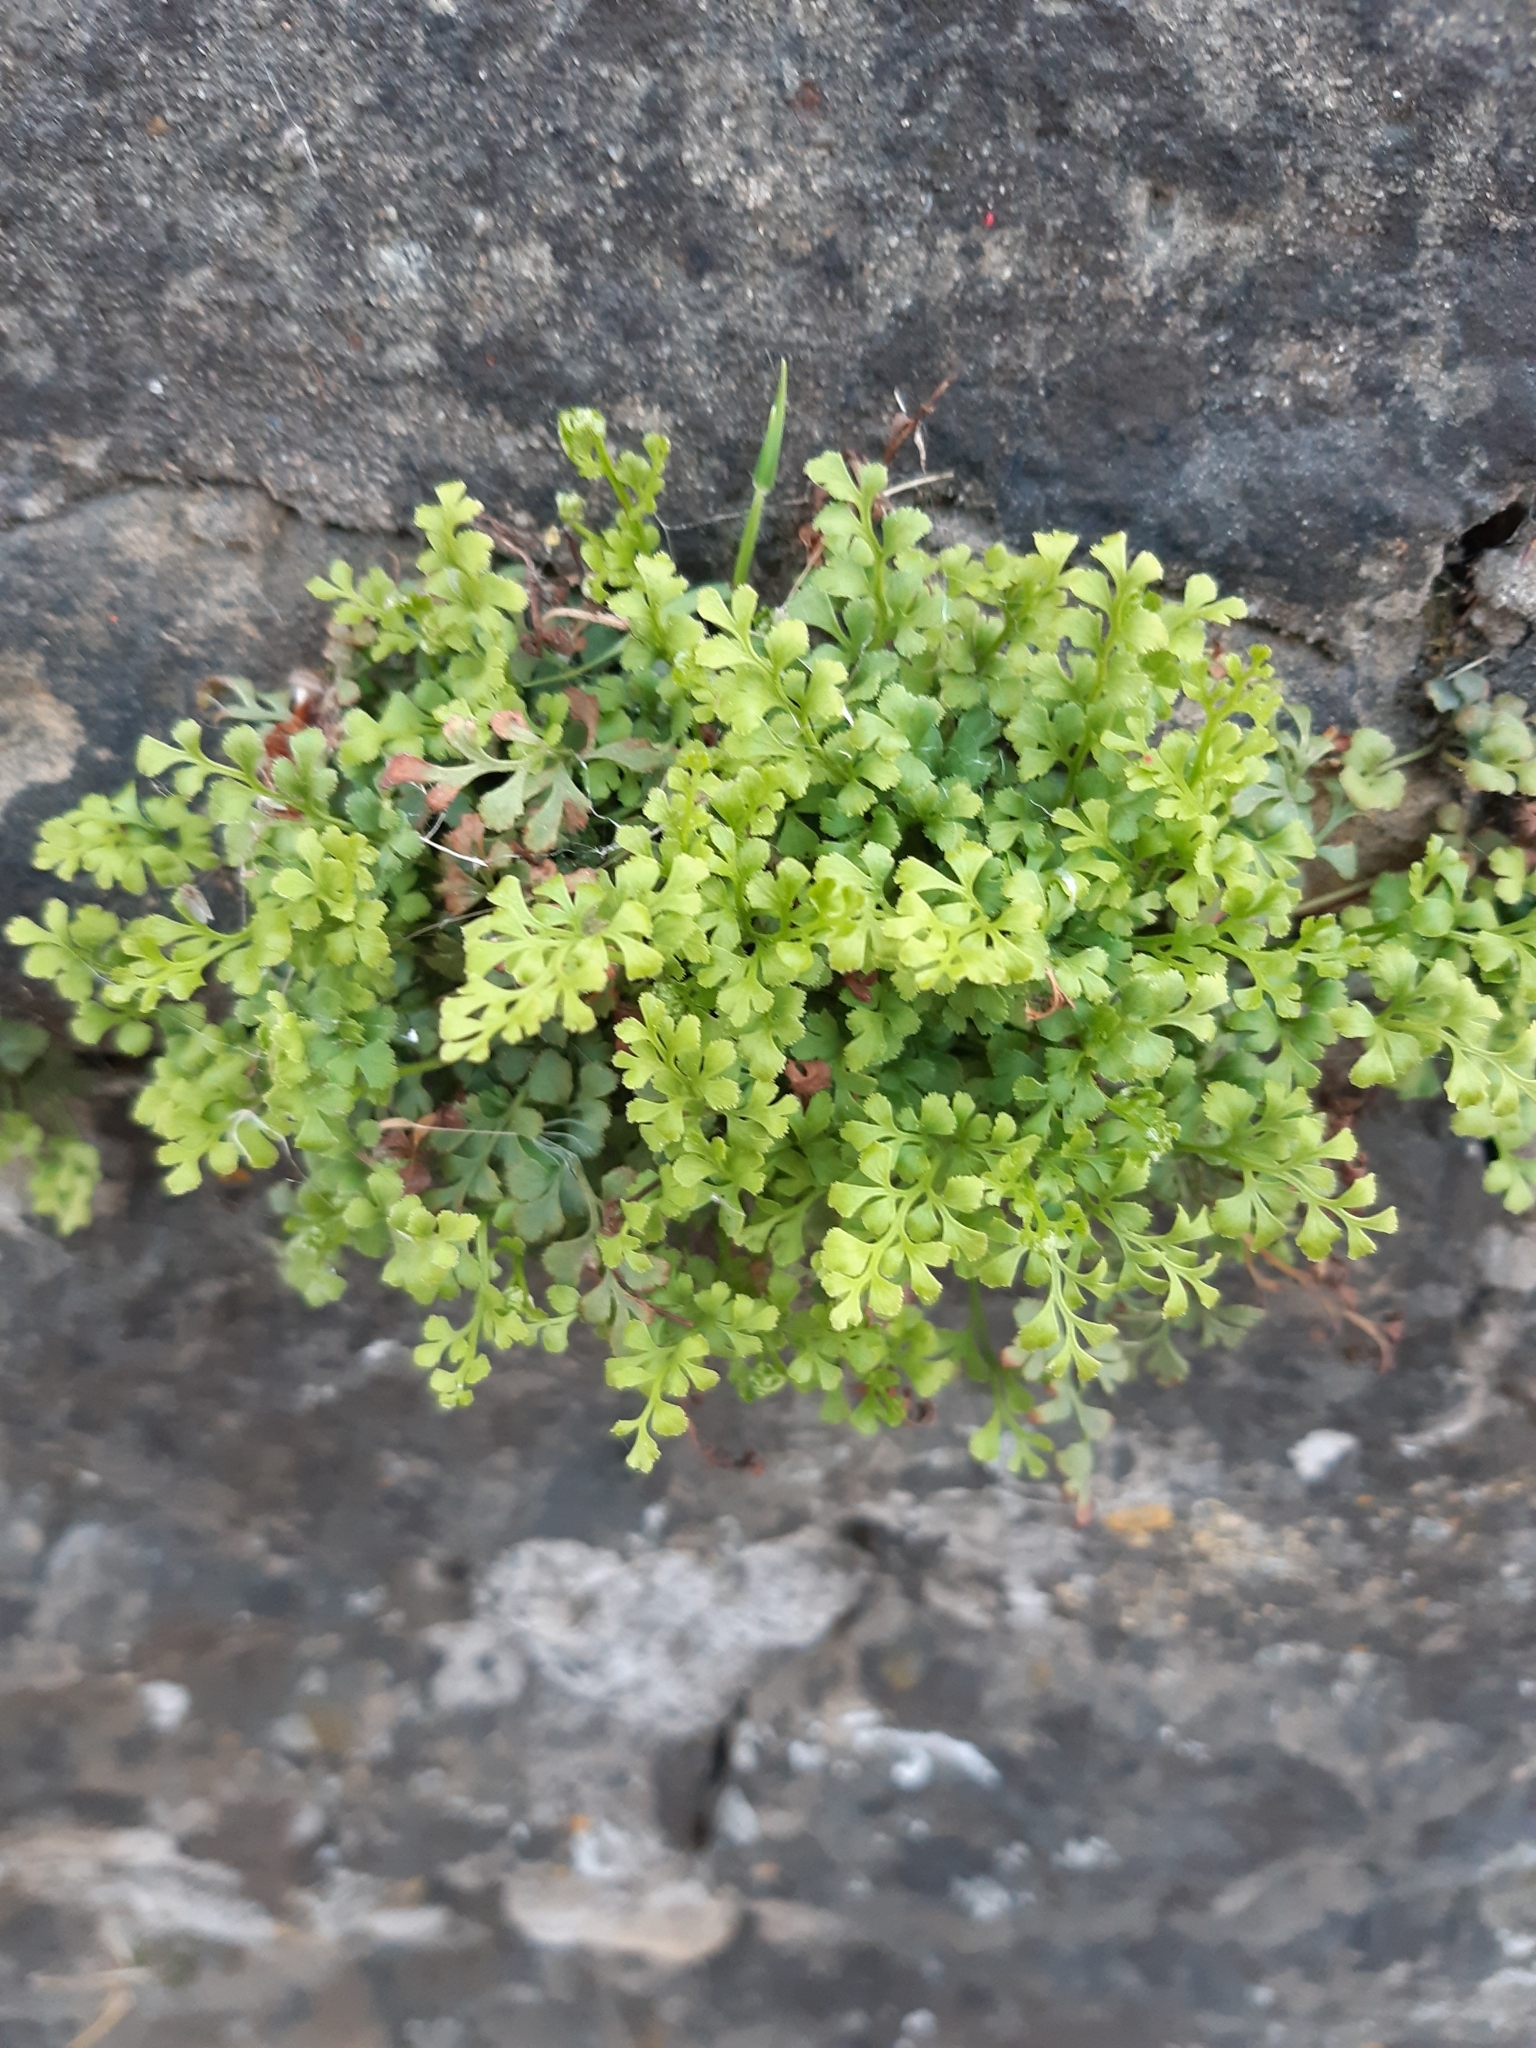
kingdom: Plantae
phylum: Tracheophyta
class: Polypodiopsida
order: Polypodiales
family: Aspleniaceae
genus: Asplenium
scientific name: Asplenium ruta-muraria
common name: Wall-rue
